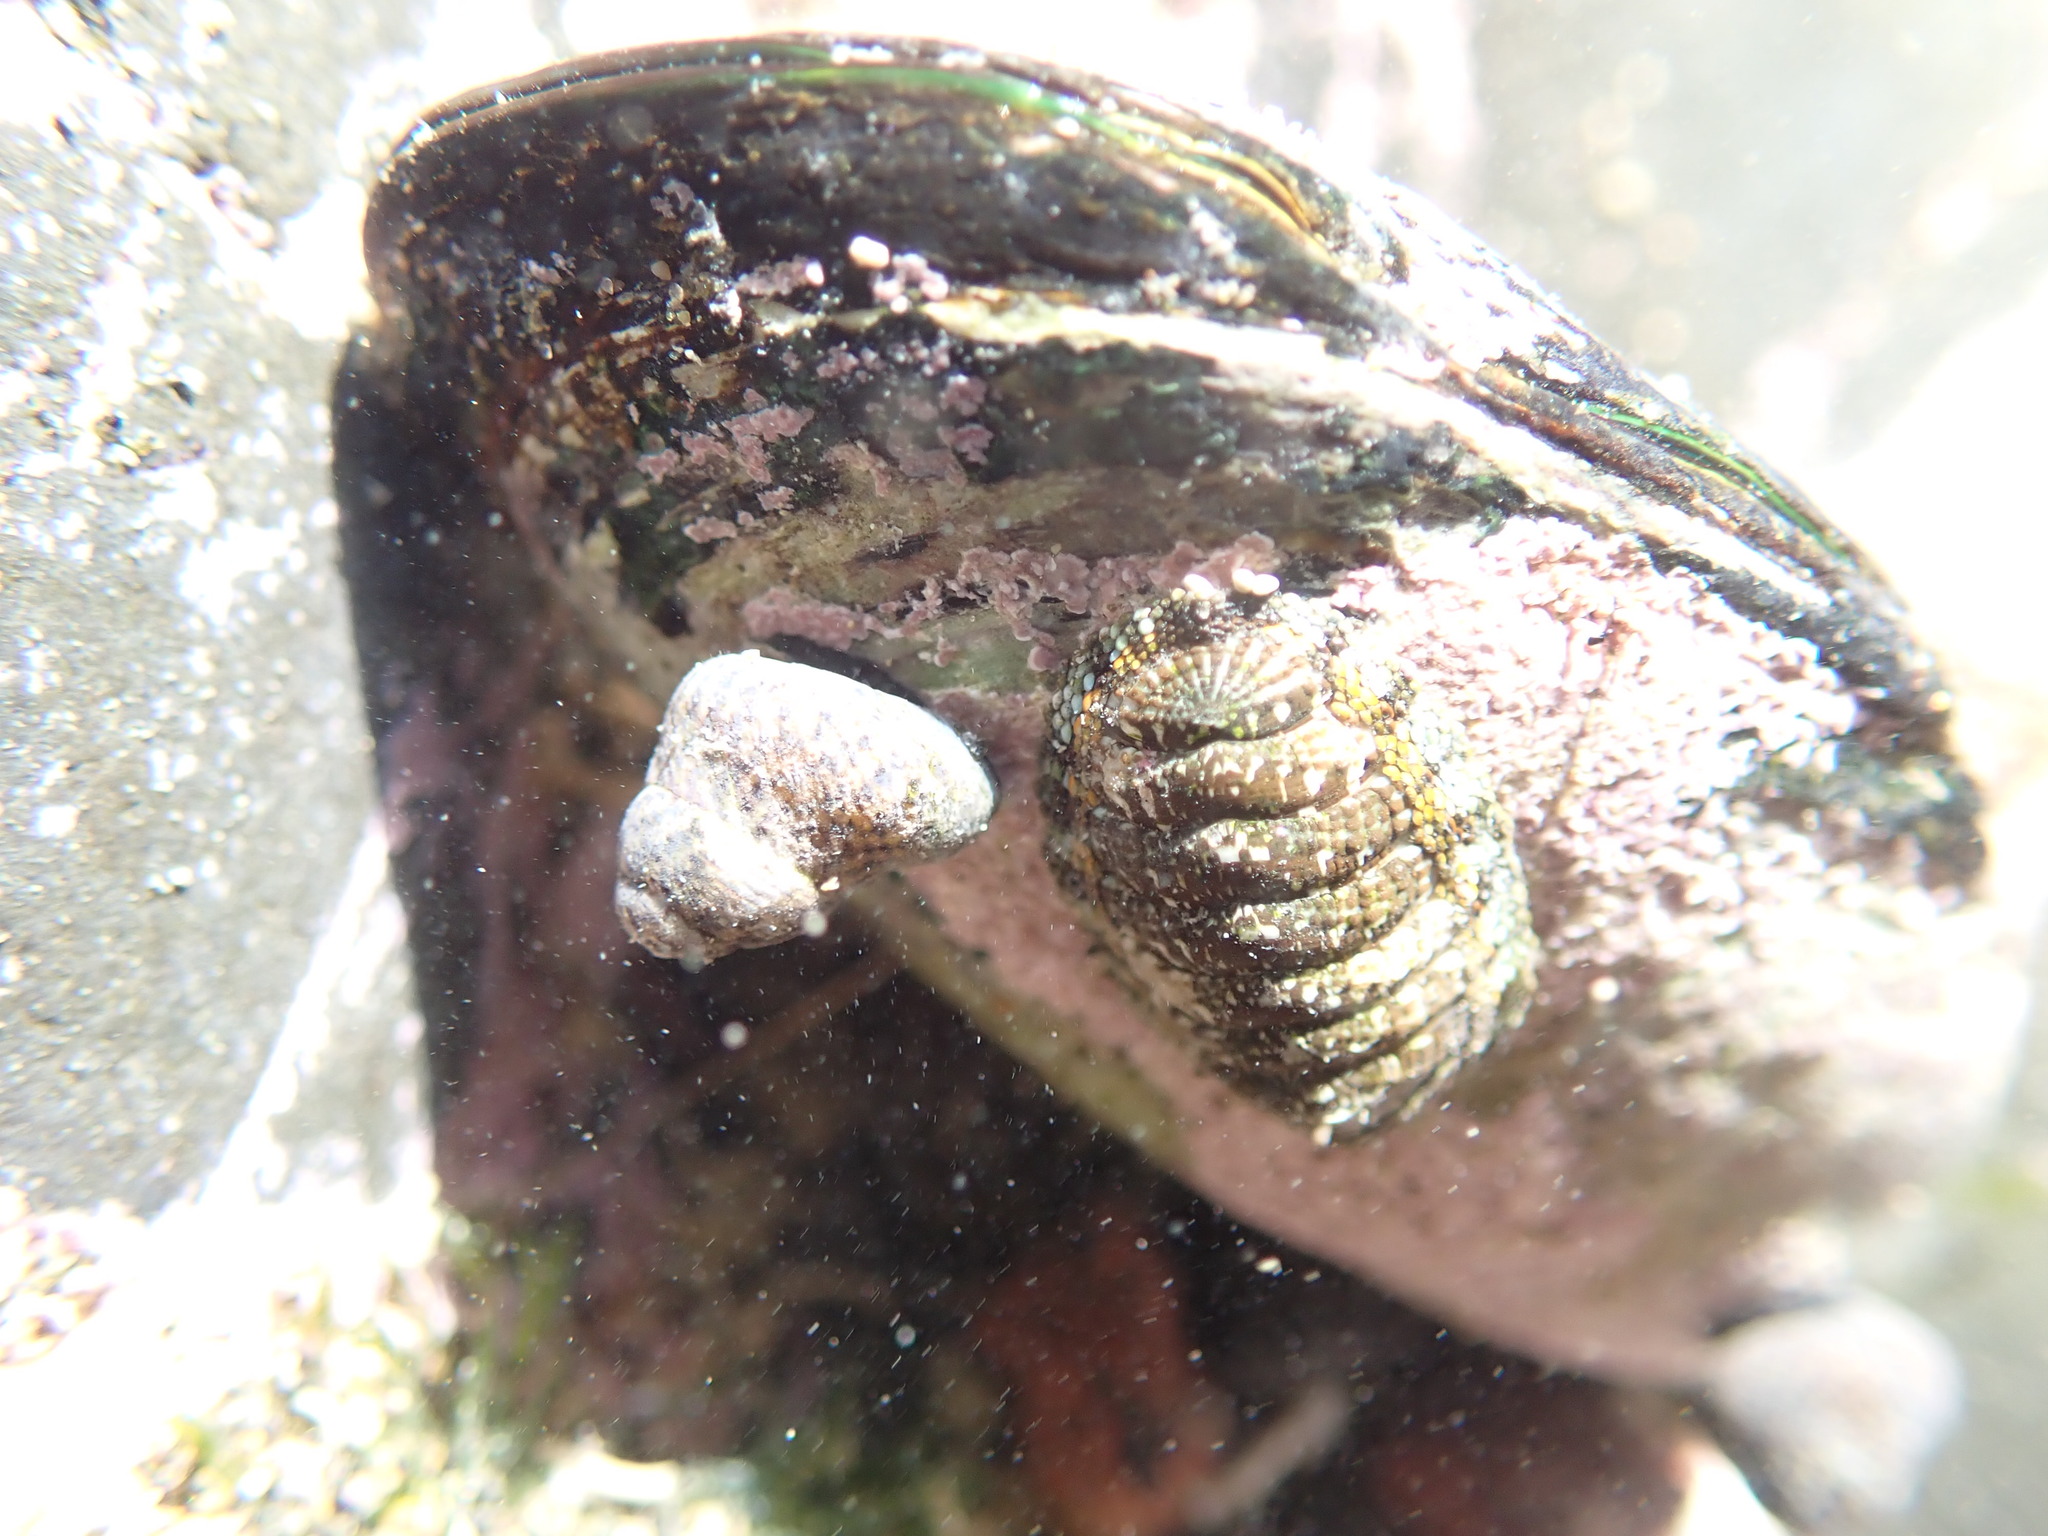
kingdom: Animalia
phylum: Mollusca
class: Gastropoda
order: Trochida
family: Trochidae
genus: Micrelenchus
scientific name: Micrelenchus tessellatus
